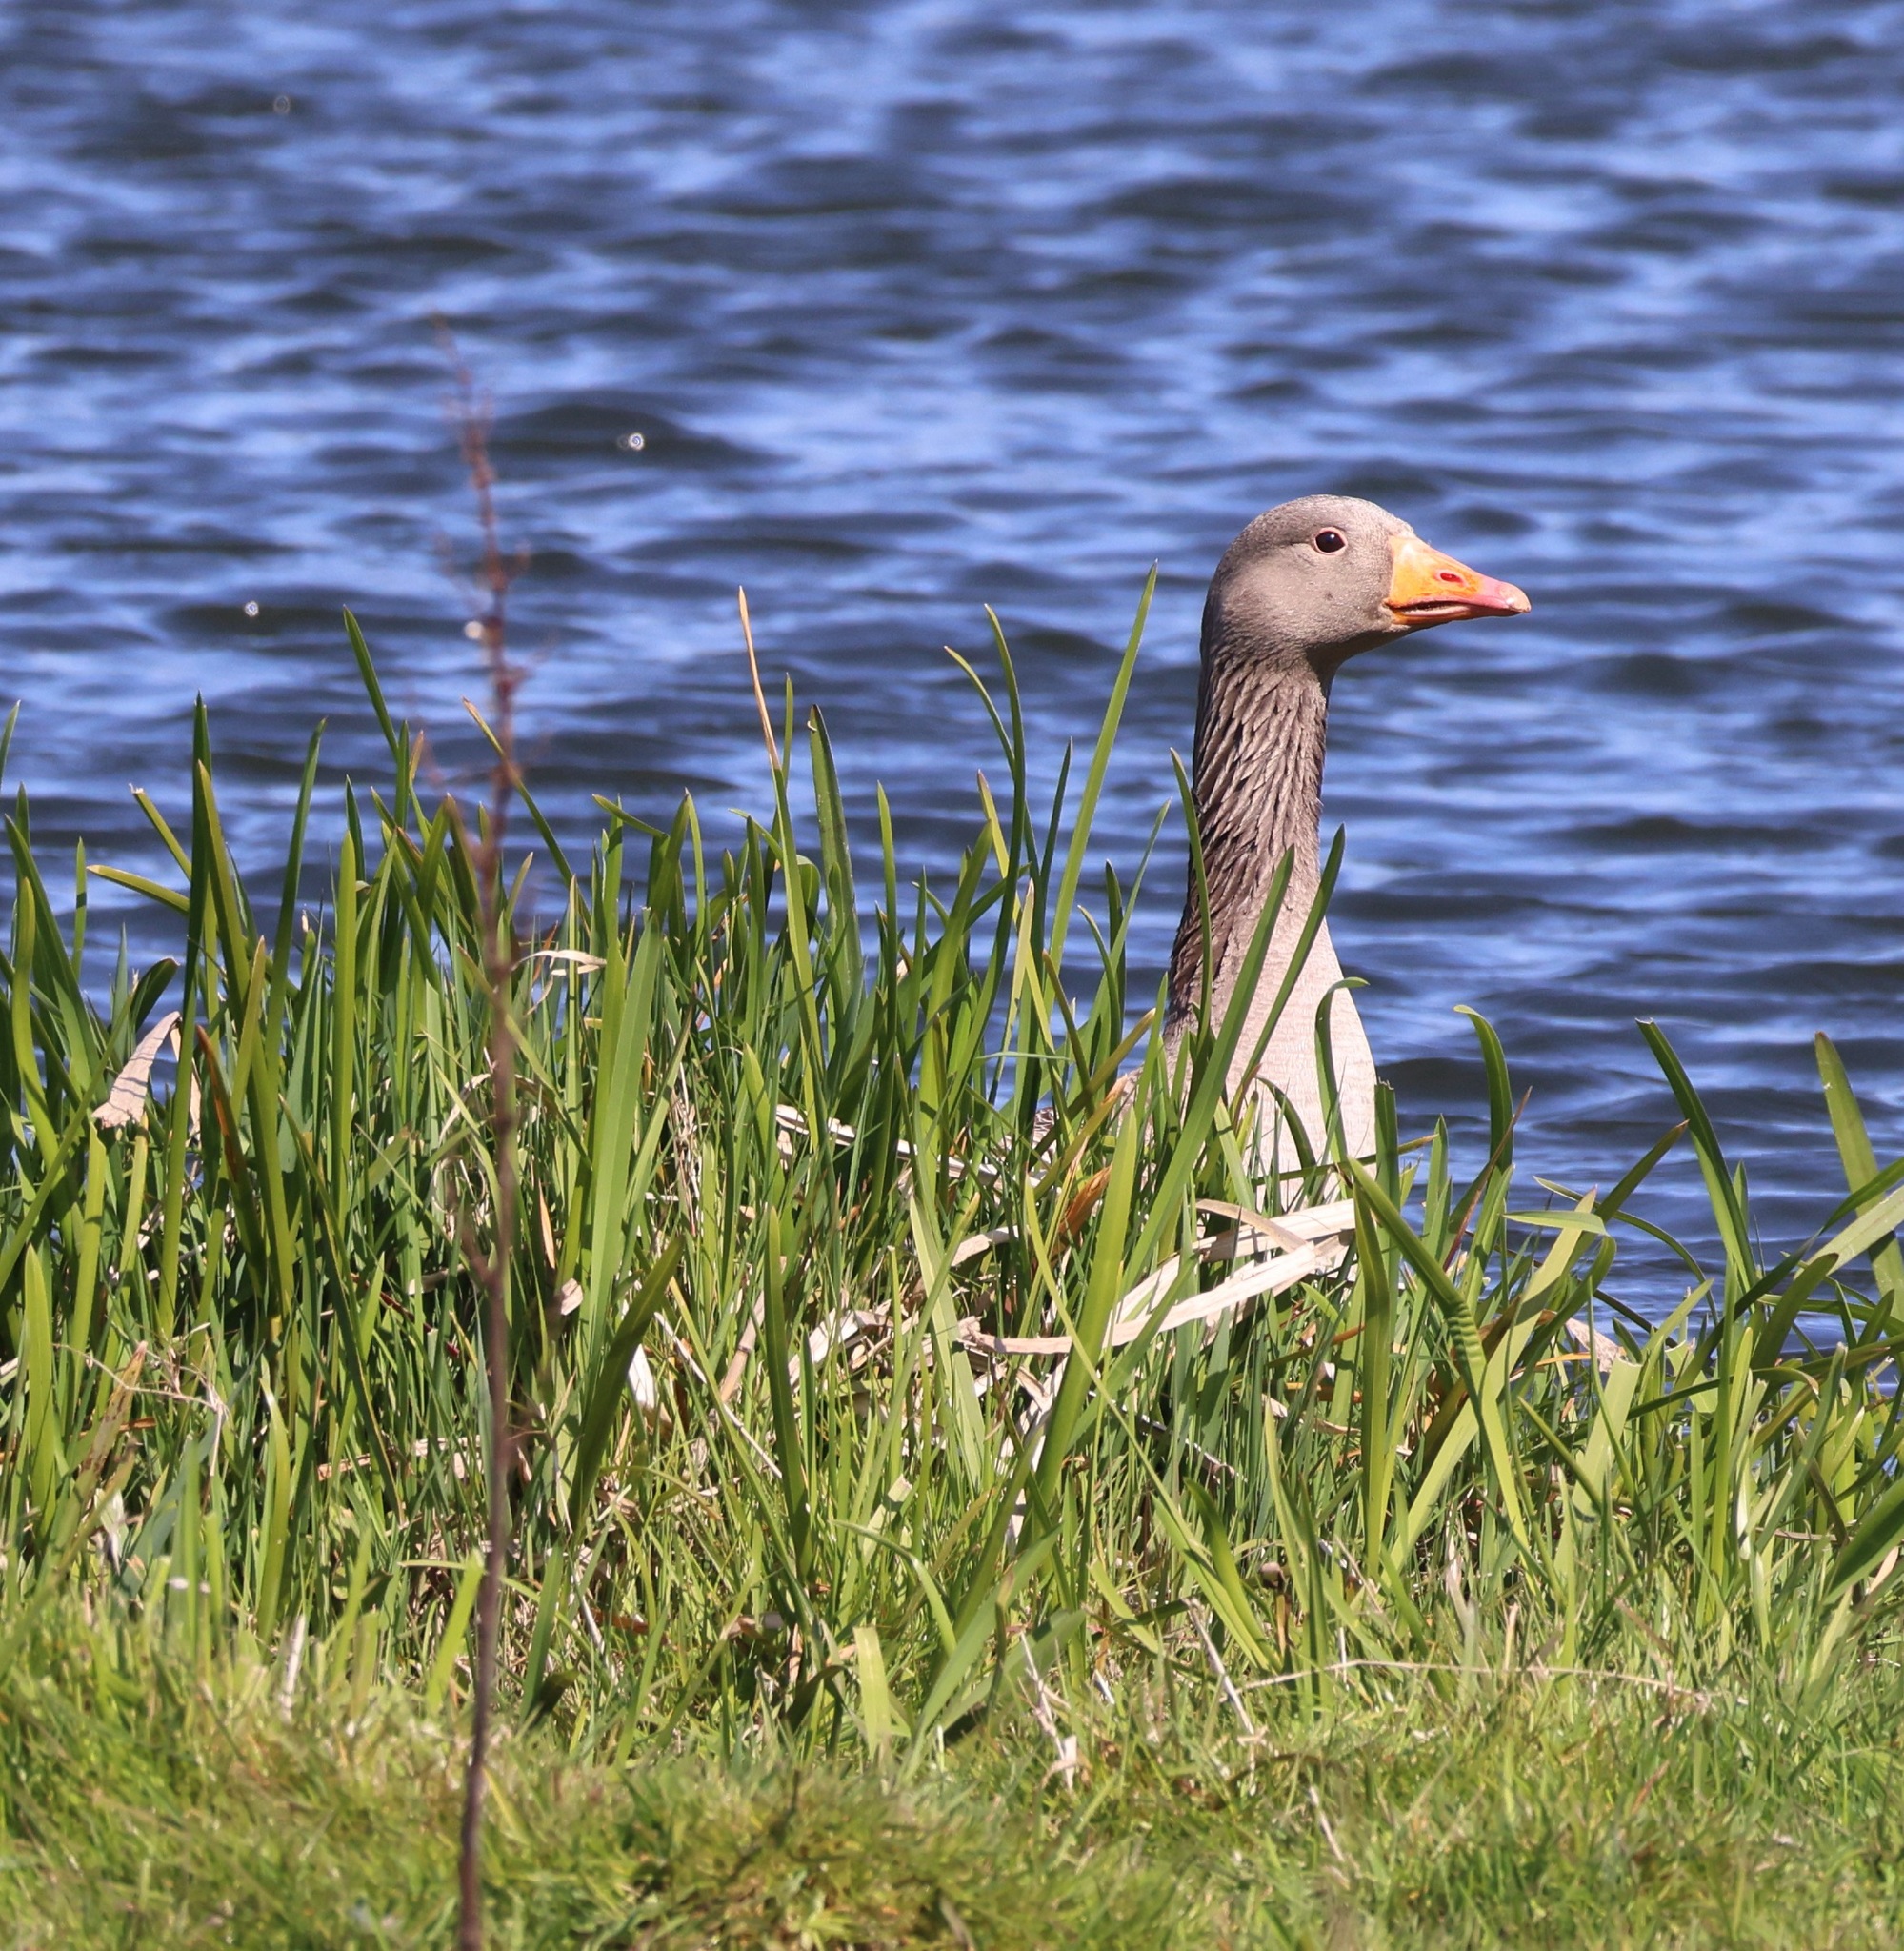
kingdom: Animalia
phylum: Chordata
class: Aves
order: Anseriformes
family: Anatidae
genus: Anser
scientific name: Anser anser
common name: Greylag goose
